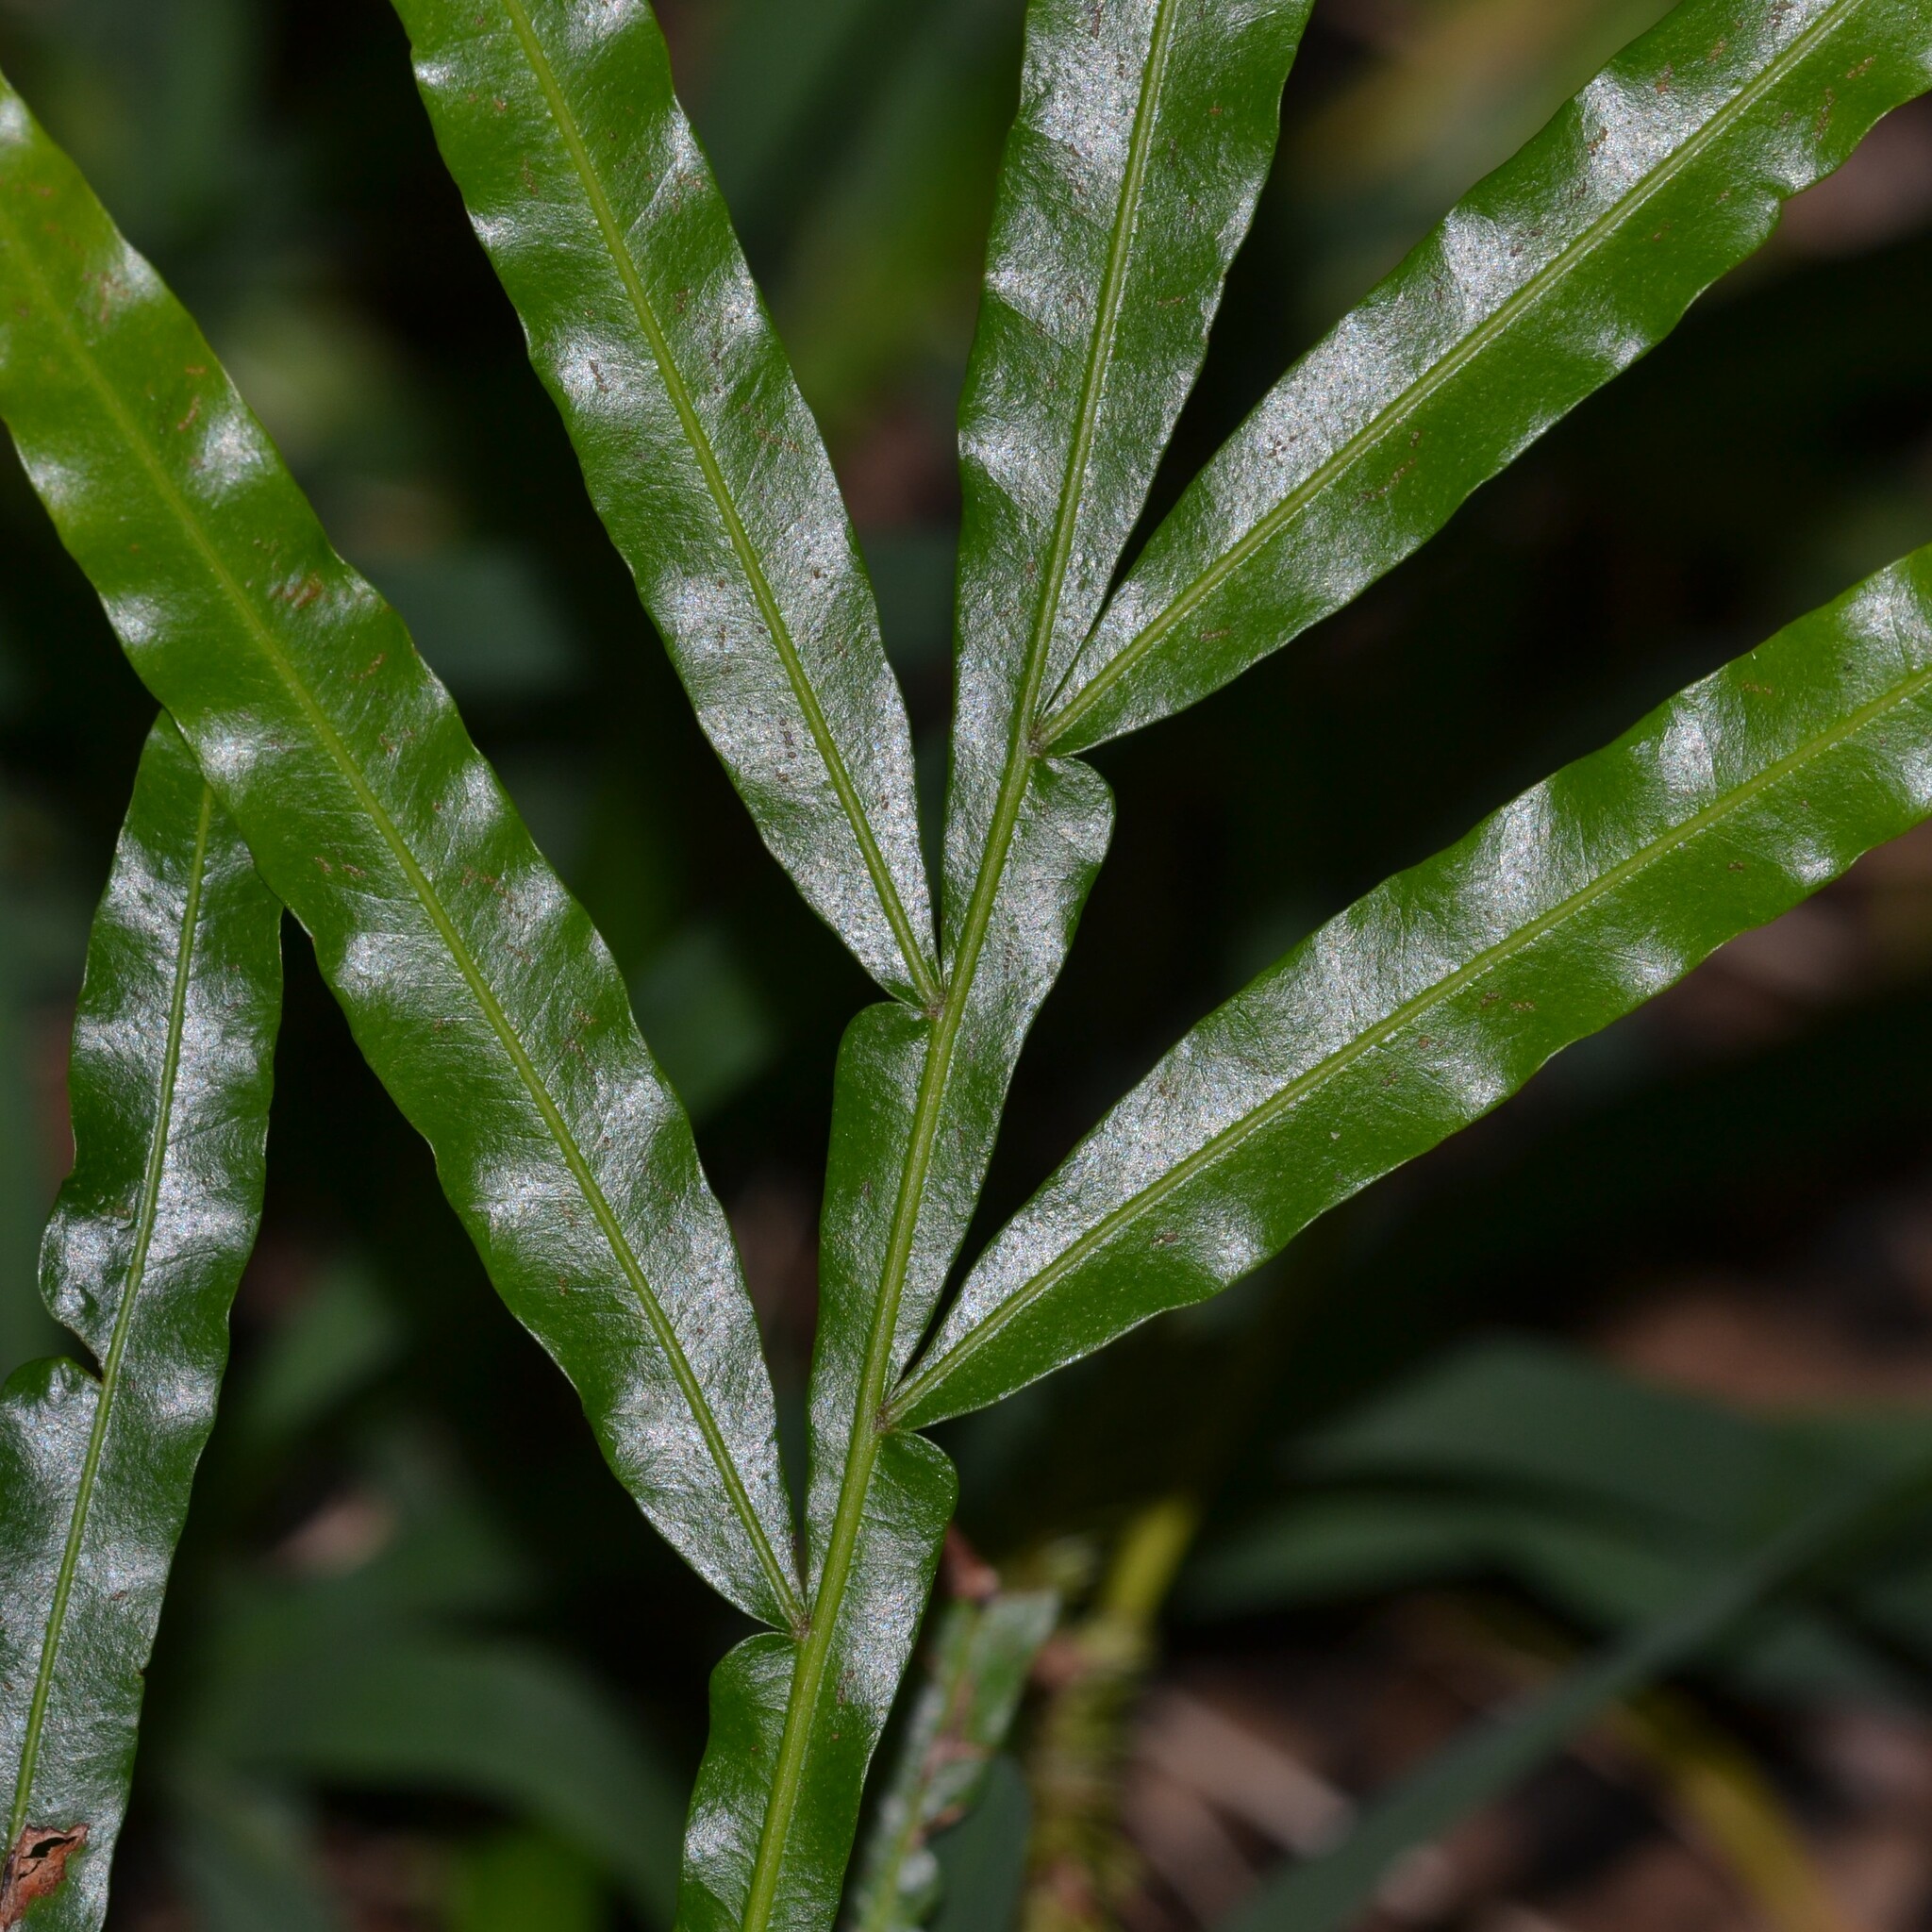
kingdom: Plantae
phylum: Tracheophyta
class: Magnoliopsida
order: Sapindales
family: Sapindaceae
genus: Filicium
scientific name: Filicium decipiens
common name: Ferntree
